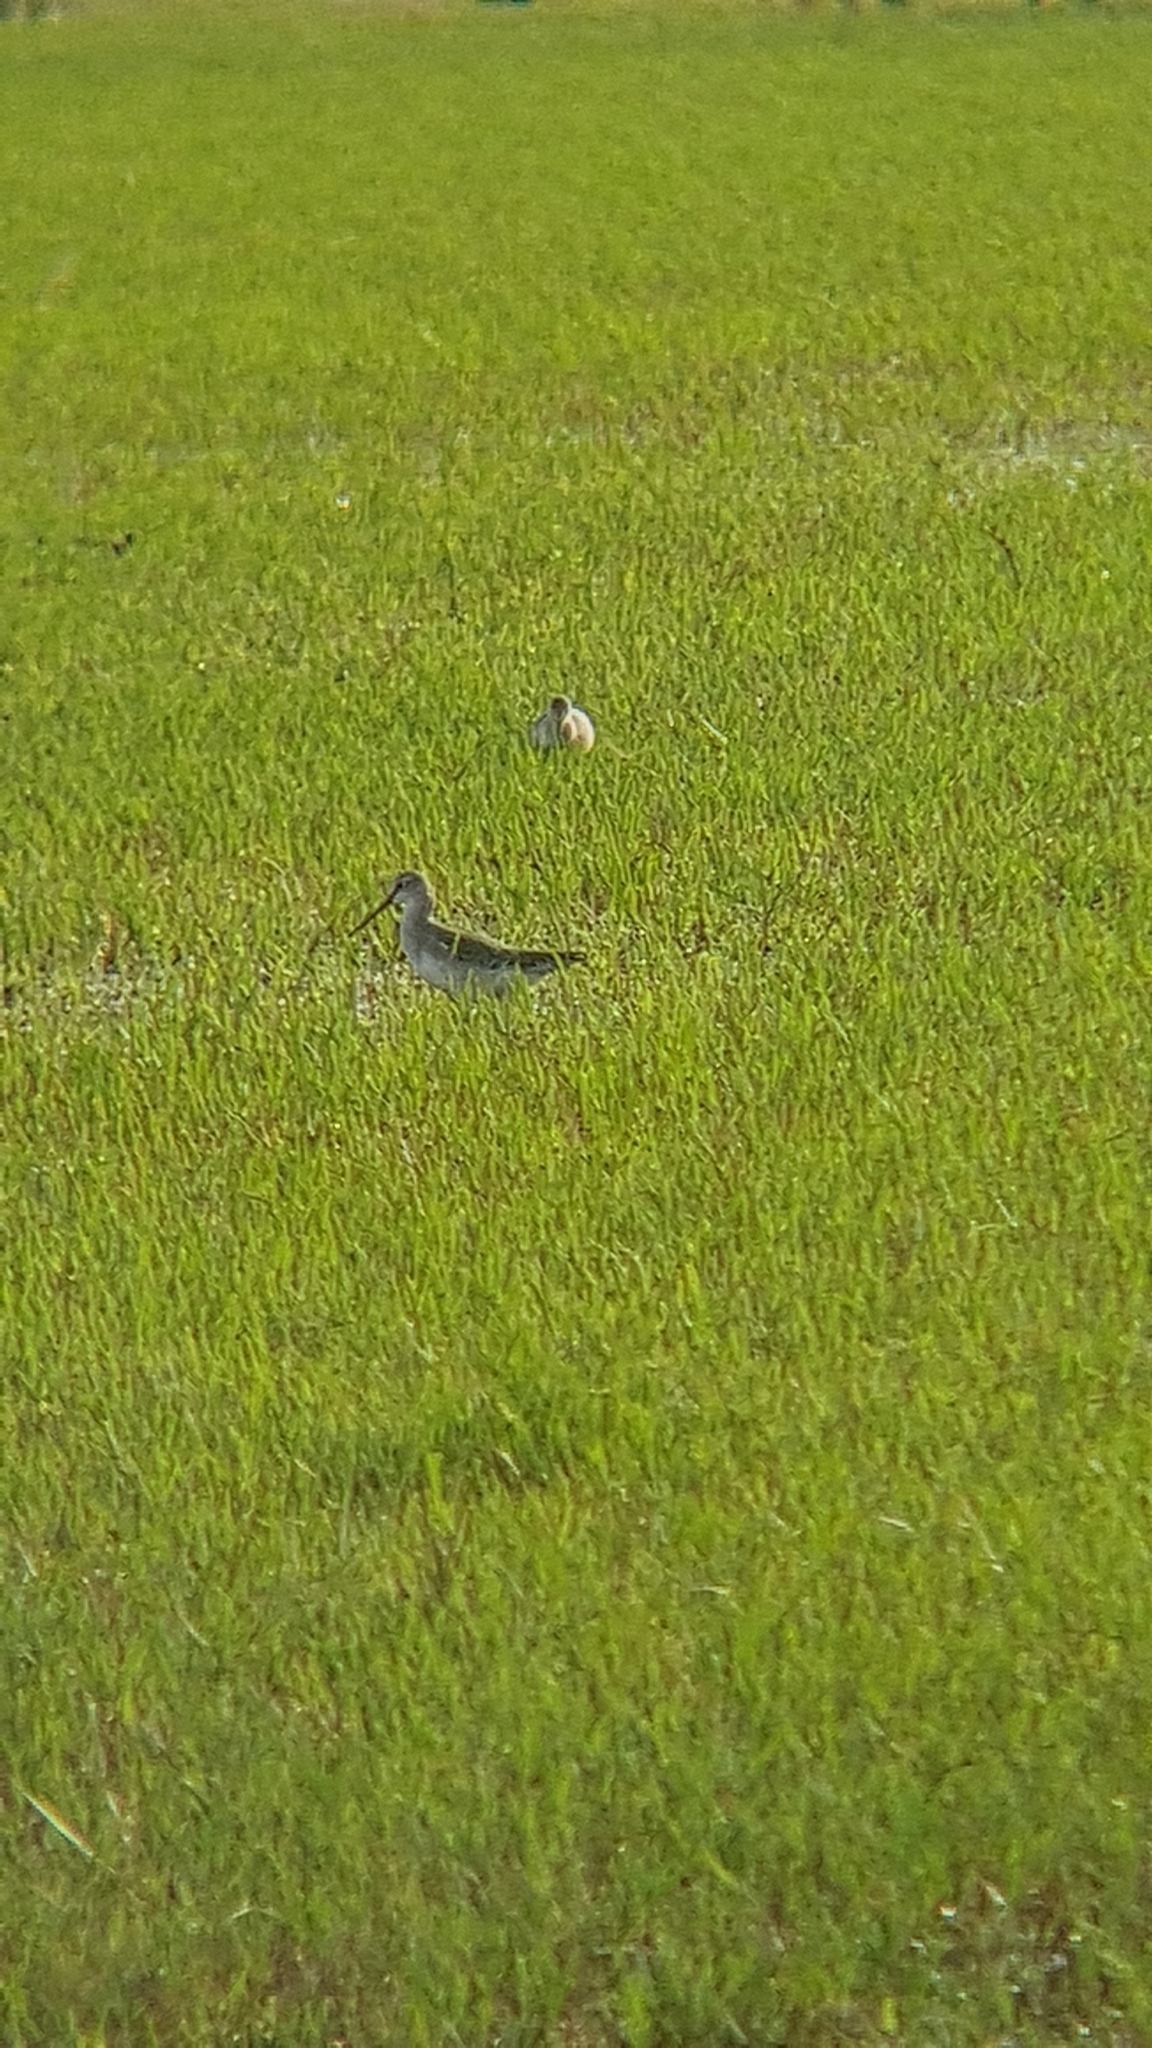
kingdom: Animalia
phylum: Chordata
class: Aves
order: Charadriiformes
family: Scolopacidae
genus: Tringa
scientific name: Tringa erythropus
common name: Spotted redshank
